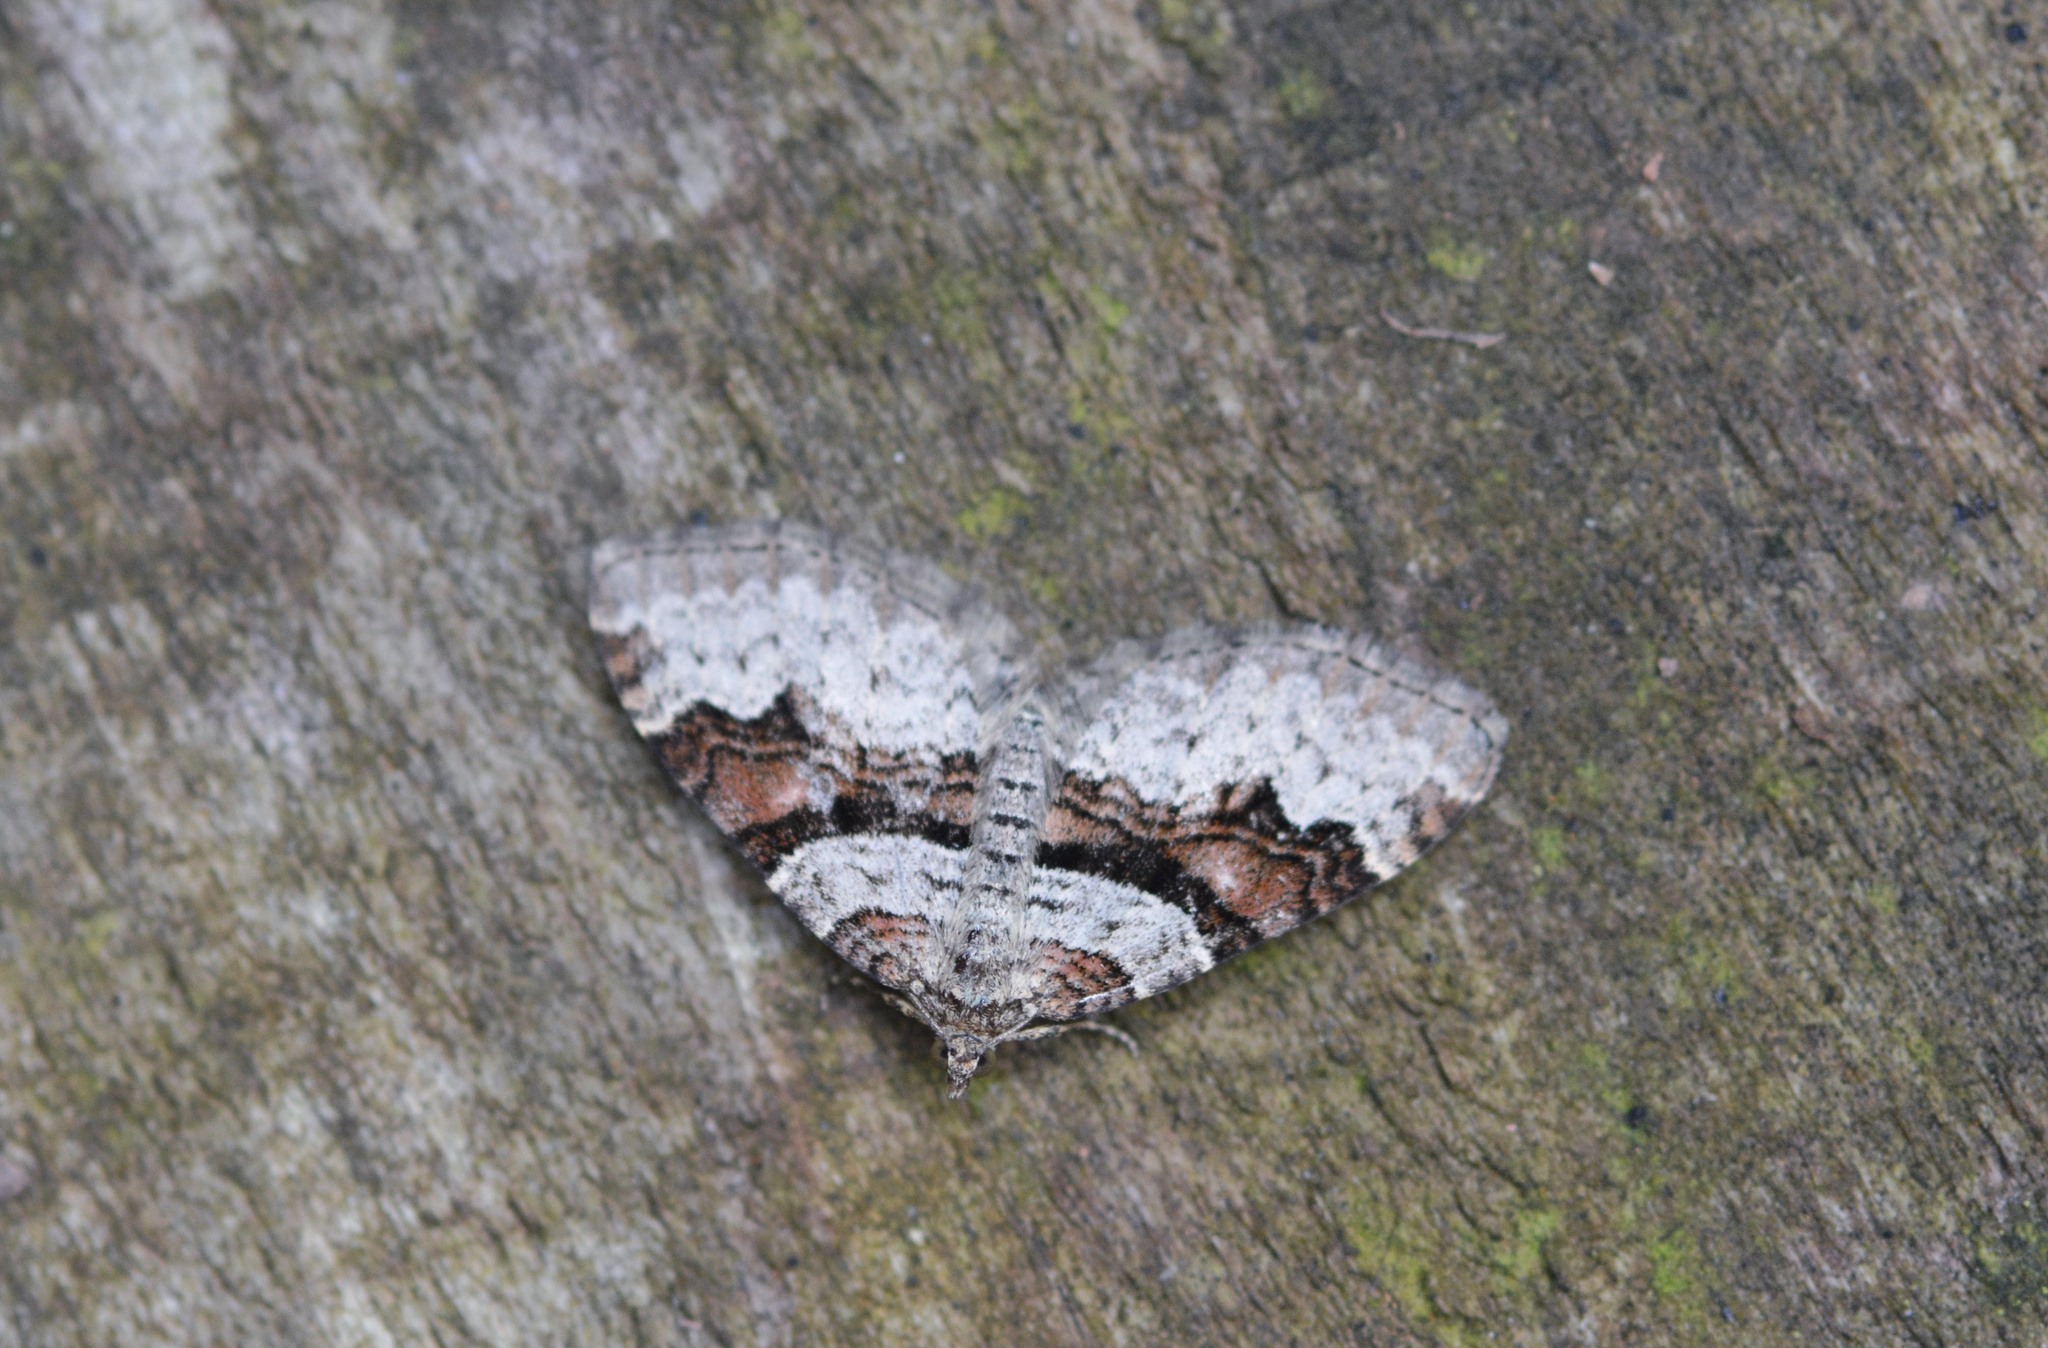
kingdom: Animalia
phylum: Arthropoda
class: Insecta
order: Lepidoptera
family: Geometridae
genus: Xanthorhoe
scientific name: Xanthorhoe designata
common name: Flame carpet
